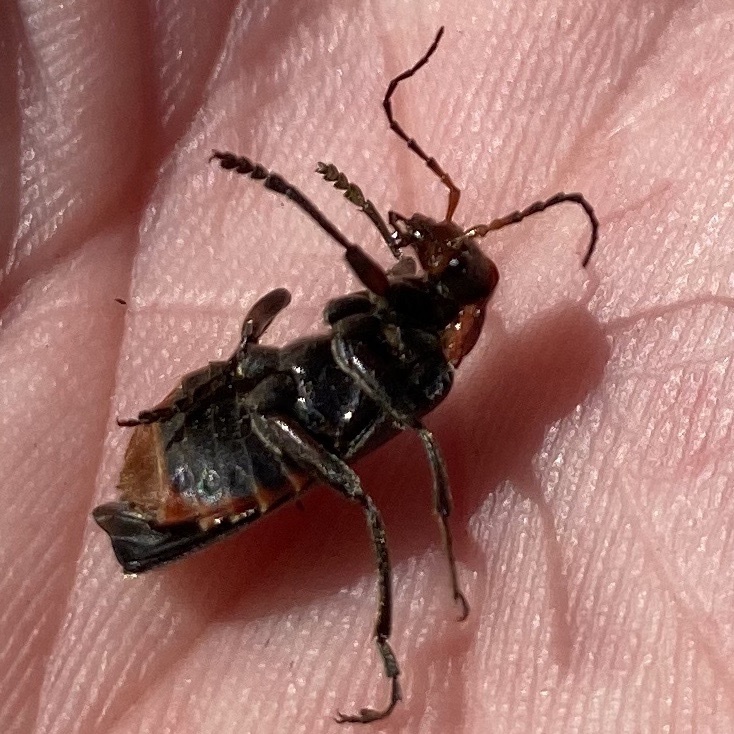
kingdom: Animalia
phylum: Arthropoda
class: Insecta
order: Coleoptera
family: Cantharidae
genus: Cantharis
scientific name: Cantharis fusca
